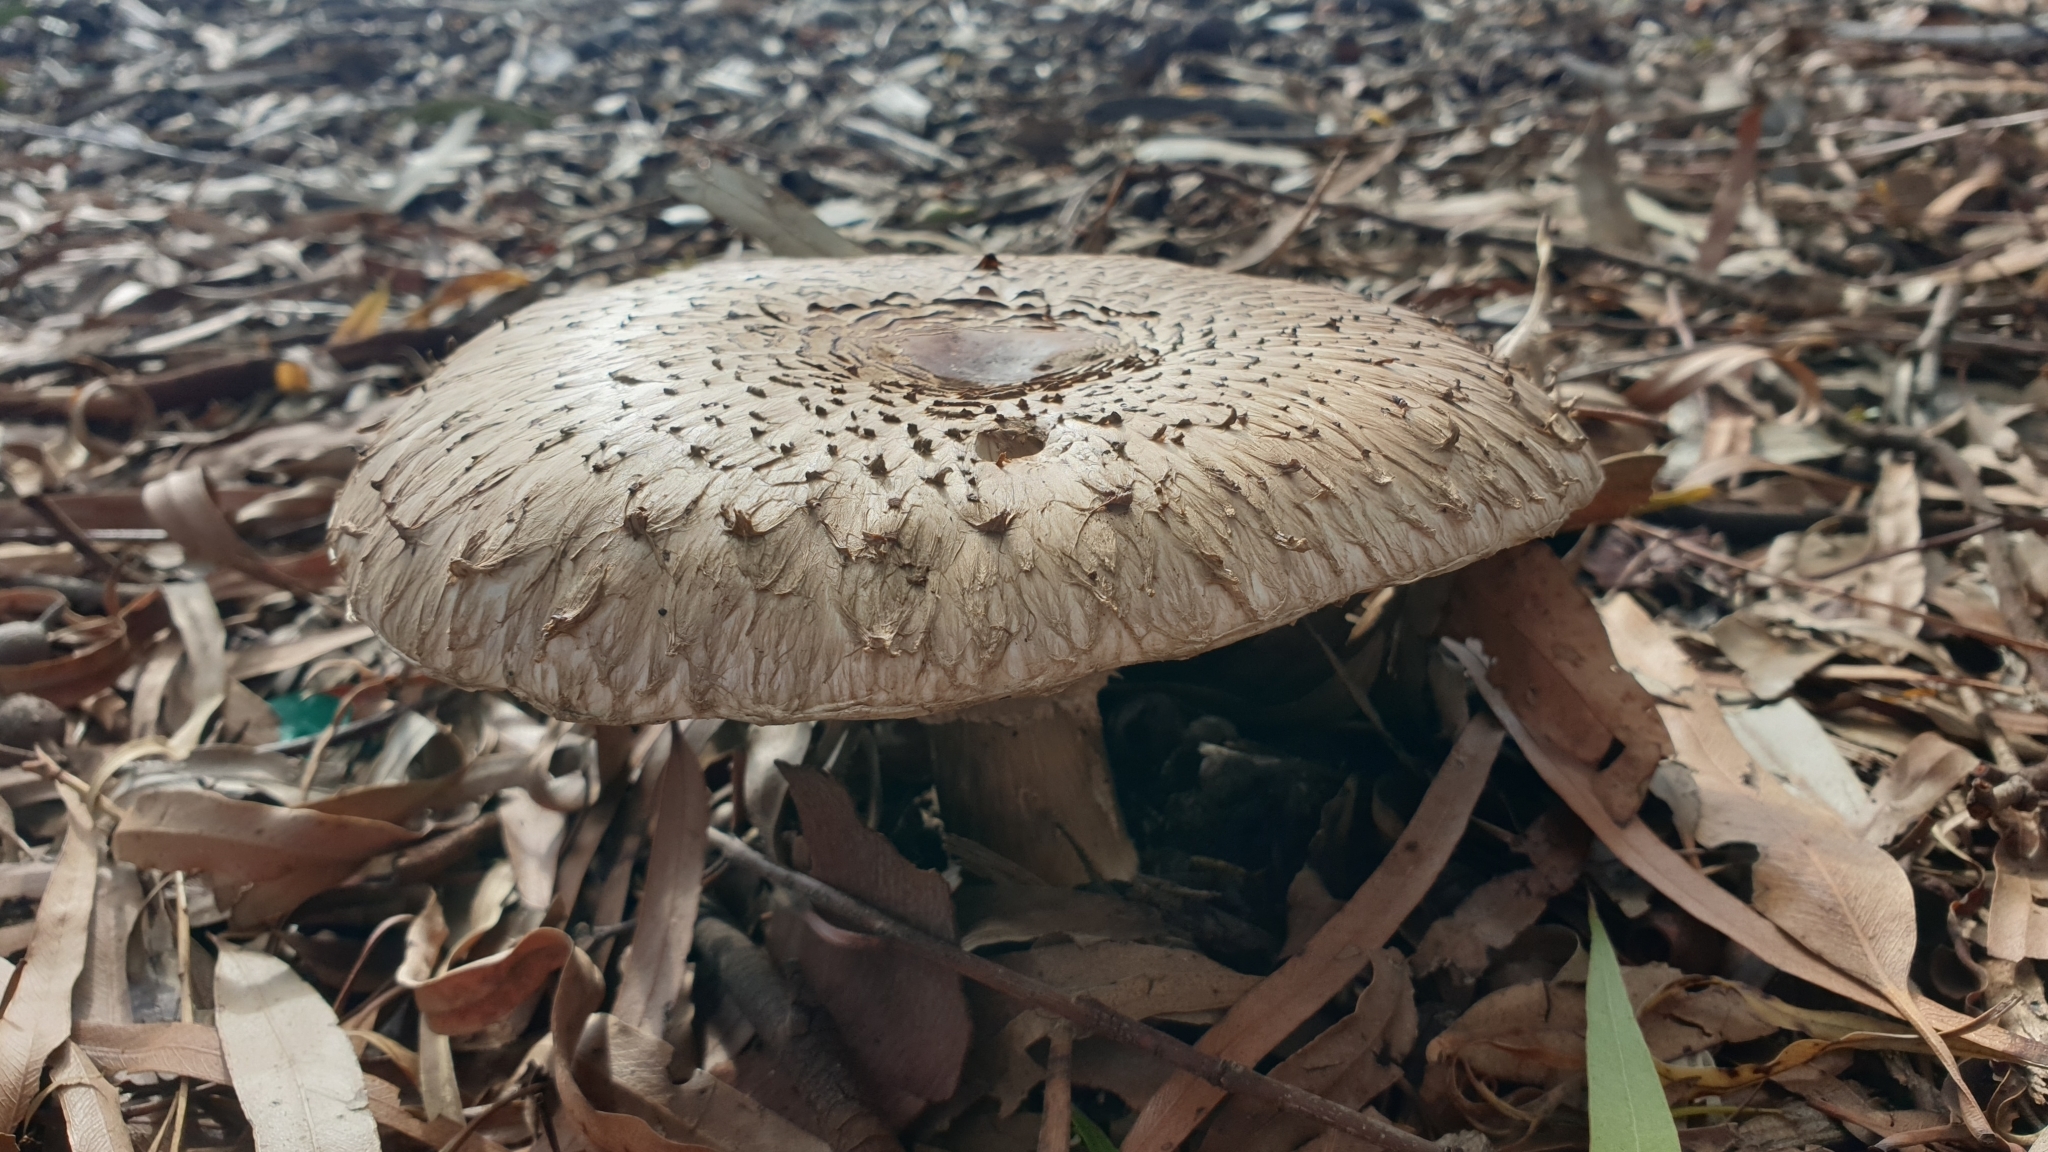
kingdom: Fungi
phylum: Basidiomycota
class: Agaricomycetes
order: Agaricales
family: Agaricaceae
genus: Chlorophyllum
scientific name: Chlorophyllum brunneum
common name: Brown parasol
